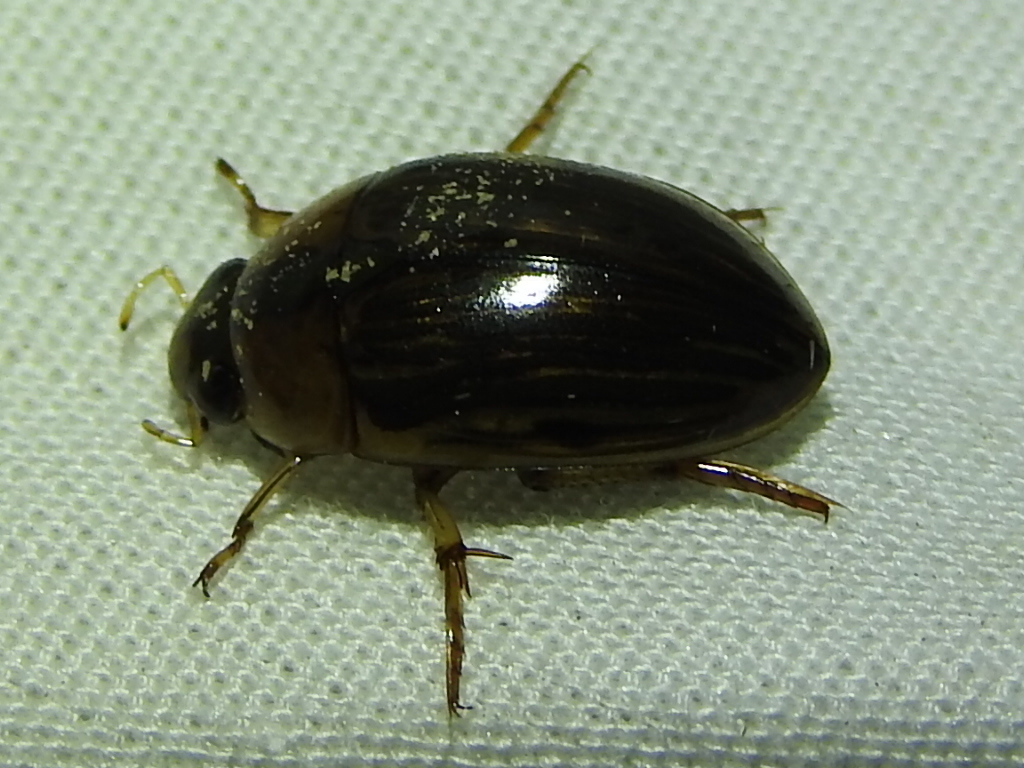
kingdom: Animalia
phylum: Arthropoda
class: Insecta
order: Coleoptera
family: Hydrophilidae
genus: Tropisternus
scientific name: Tropisternus collaris
